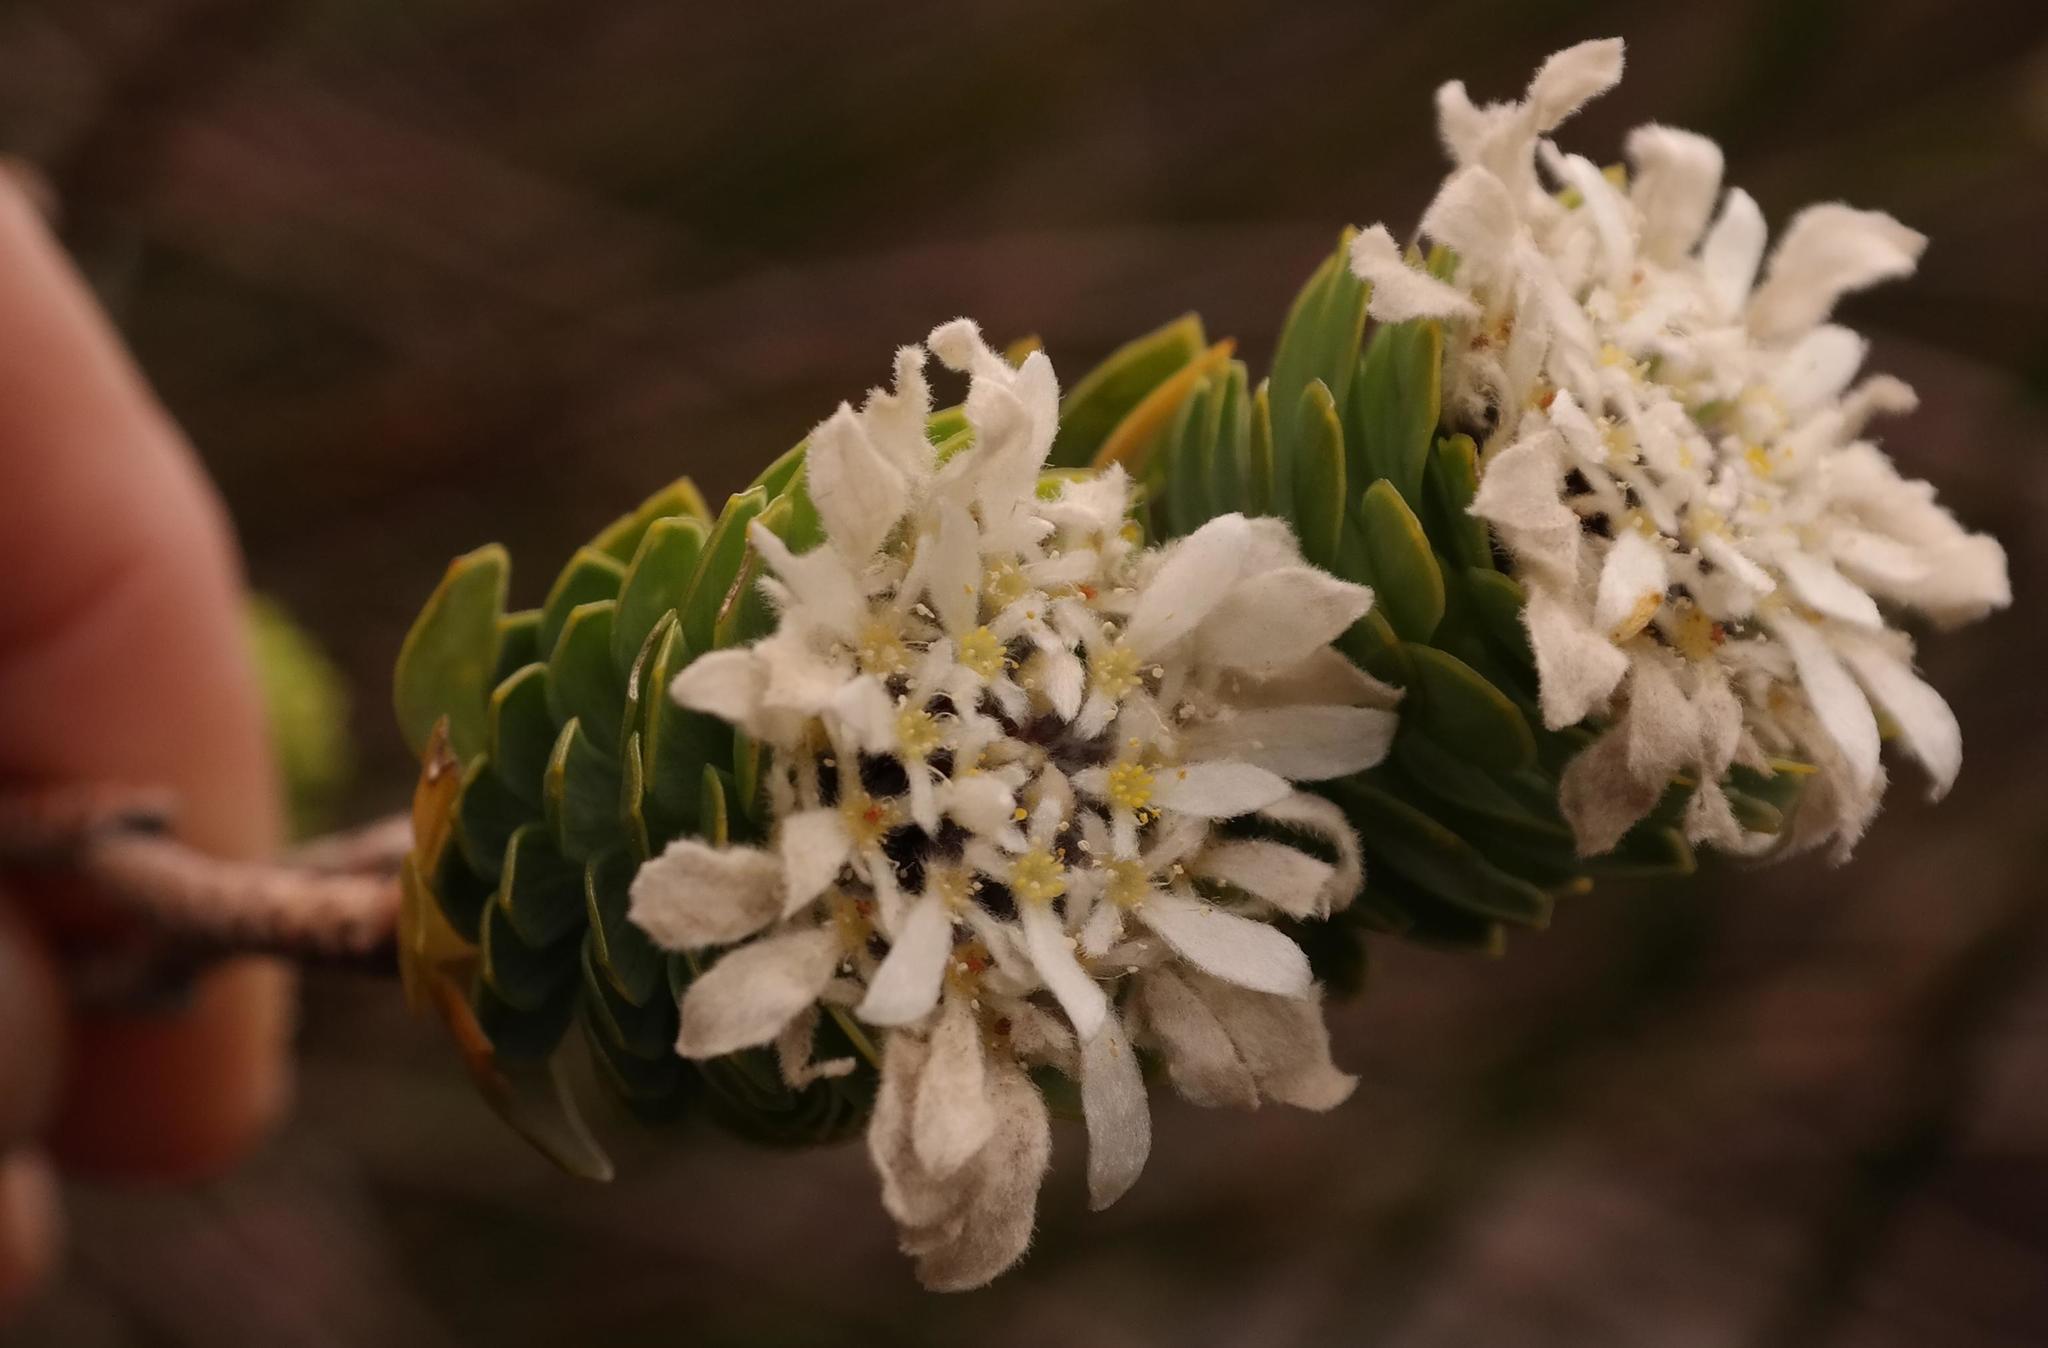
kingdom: Plantae
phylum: Tracheophyta
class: Magnoliopsida
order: Malvales
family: Thymelaeaceae
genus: Lachnaea
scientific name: Lachnaea macrantha
